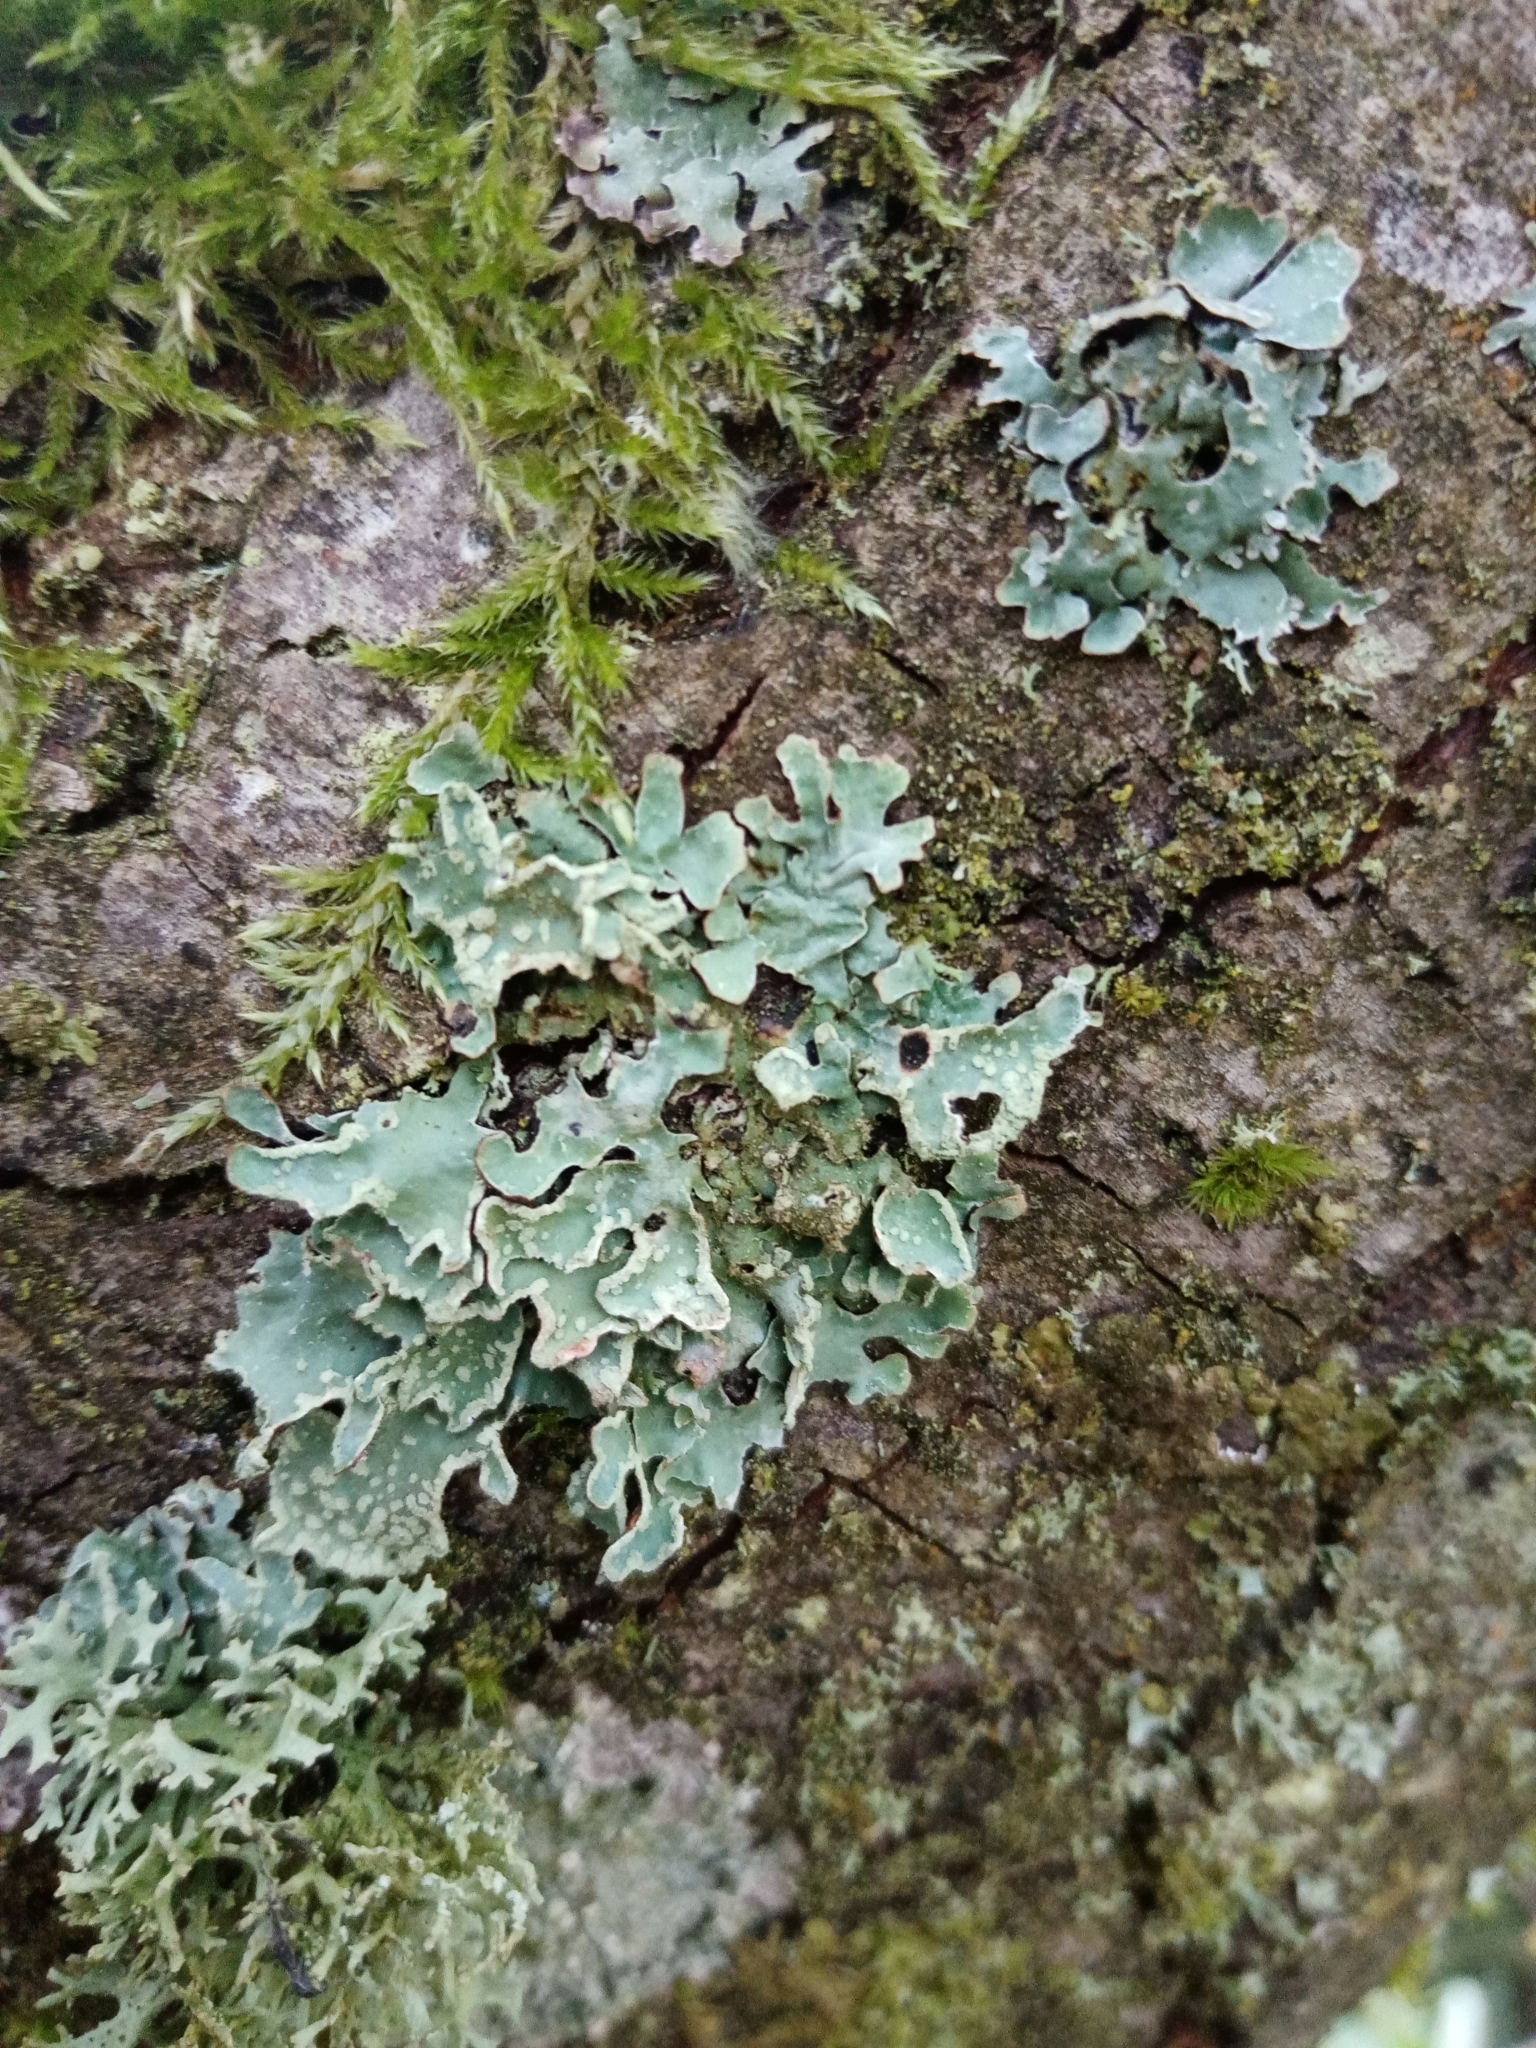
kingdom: Fungi
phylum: Ascomycota
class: Lecanoromycetes
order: Lecanorales
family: Parmeliaceae
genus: Parmelia
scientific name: Parmelia sulcata
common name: Netted shield lichen
